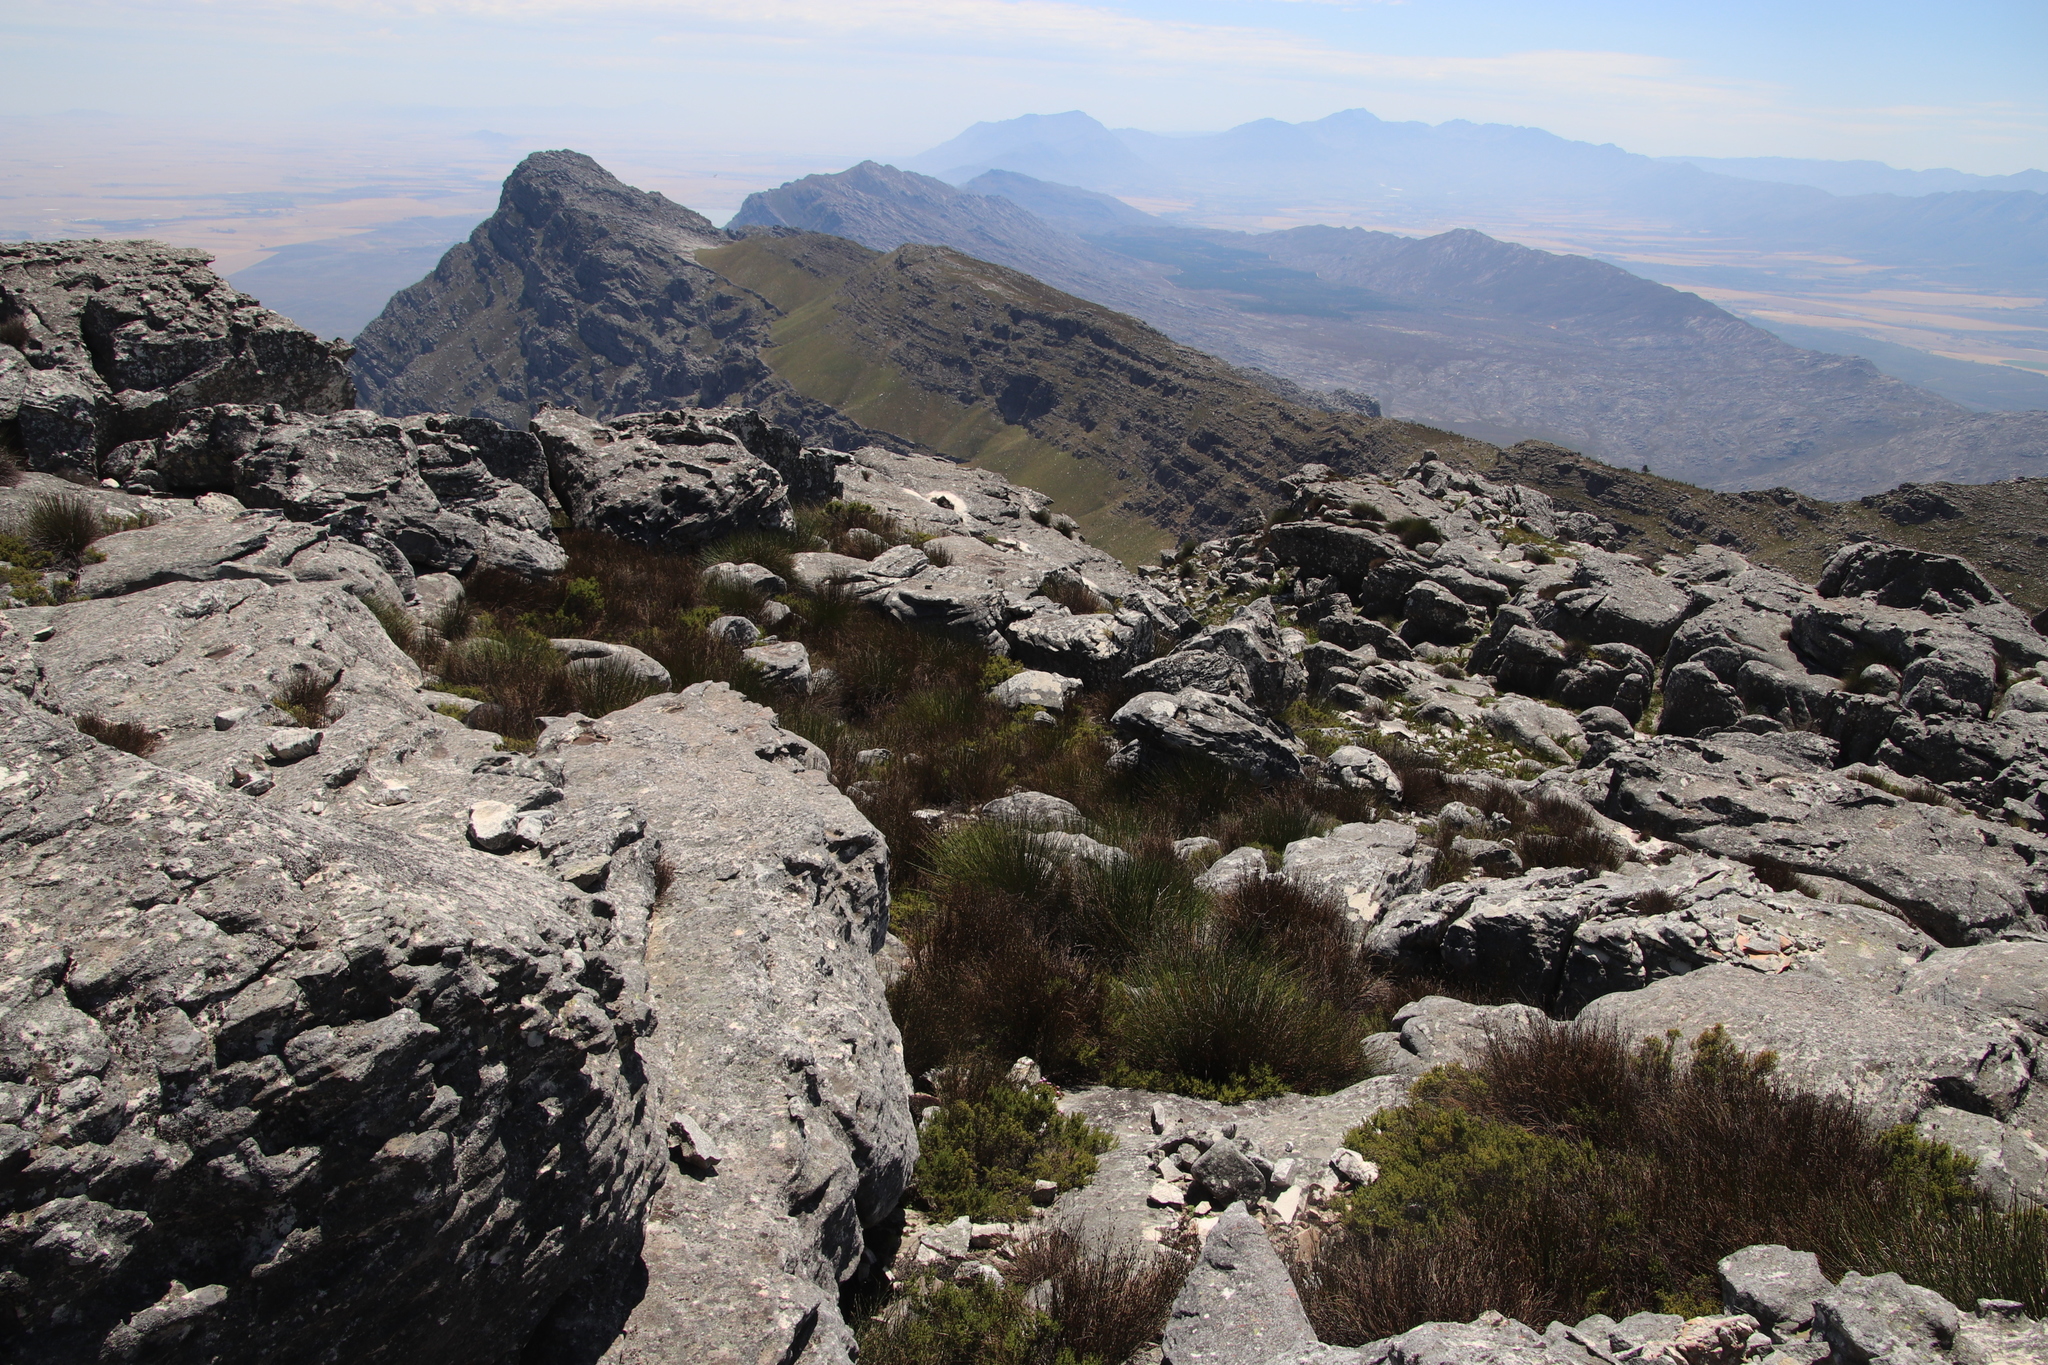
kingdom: Plantae
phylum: Tracheophyta
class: Liliopsida
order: Poales
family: Restionaceae
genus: Askidiosperma
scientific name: Askidiosperma andreaeanum
